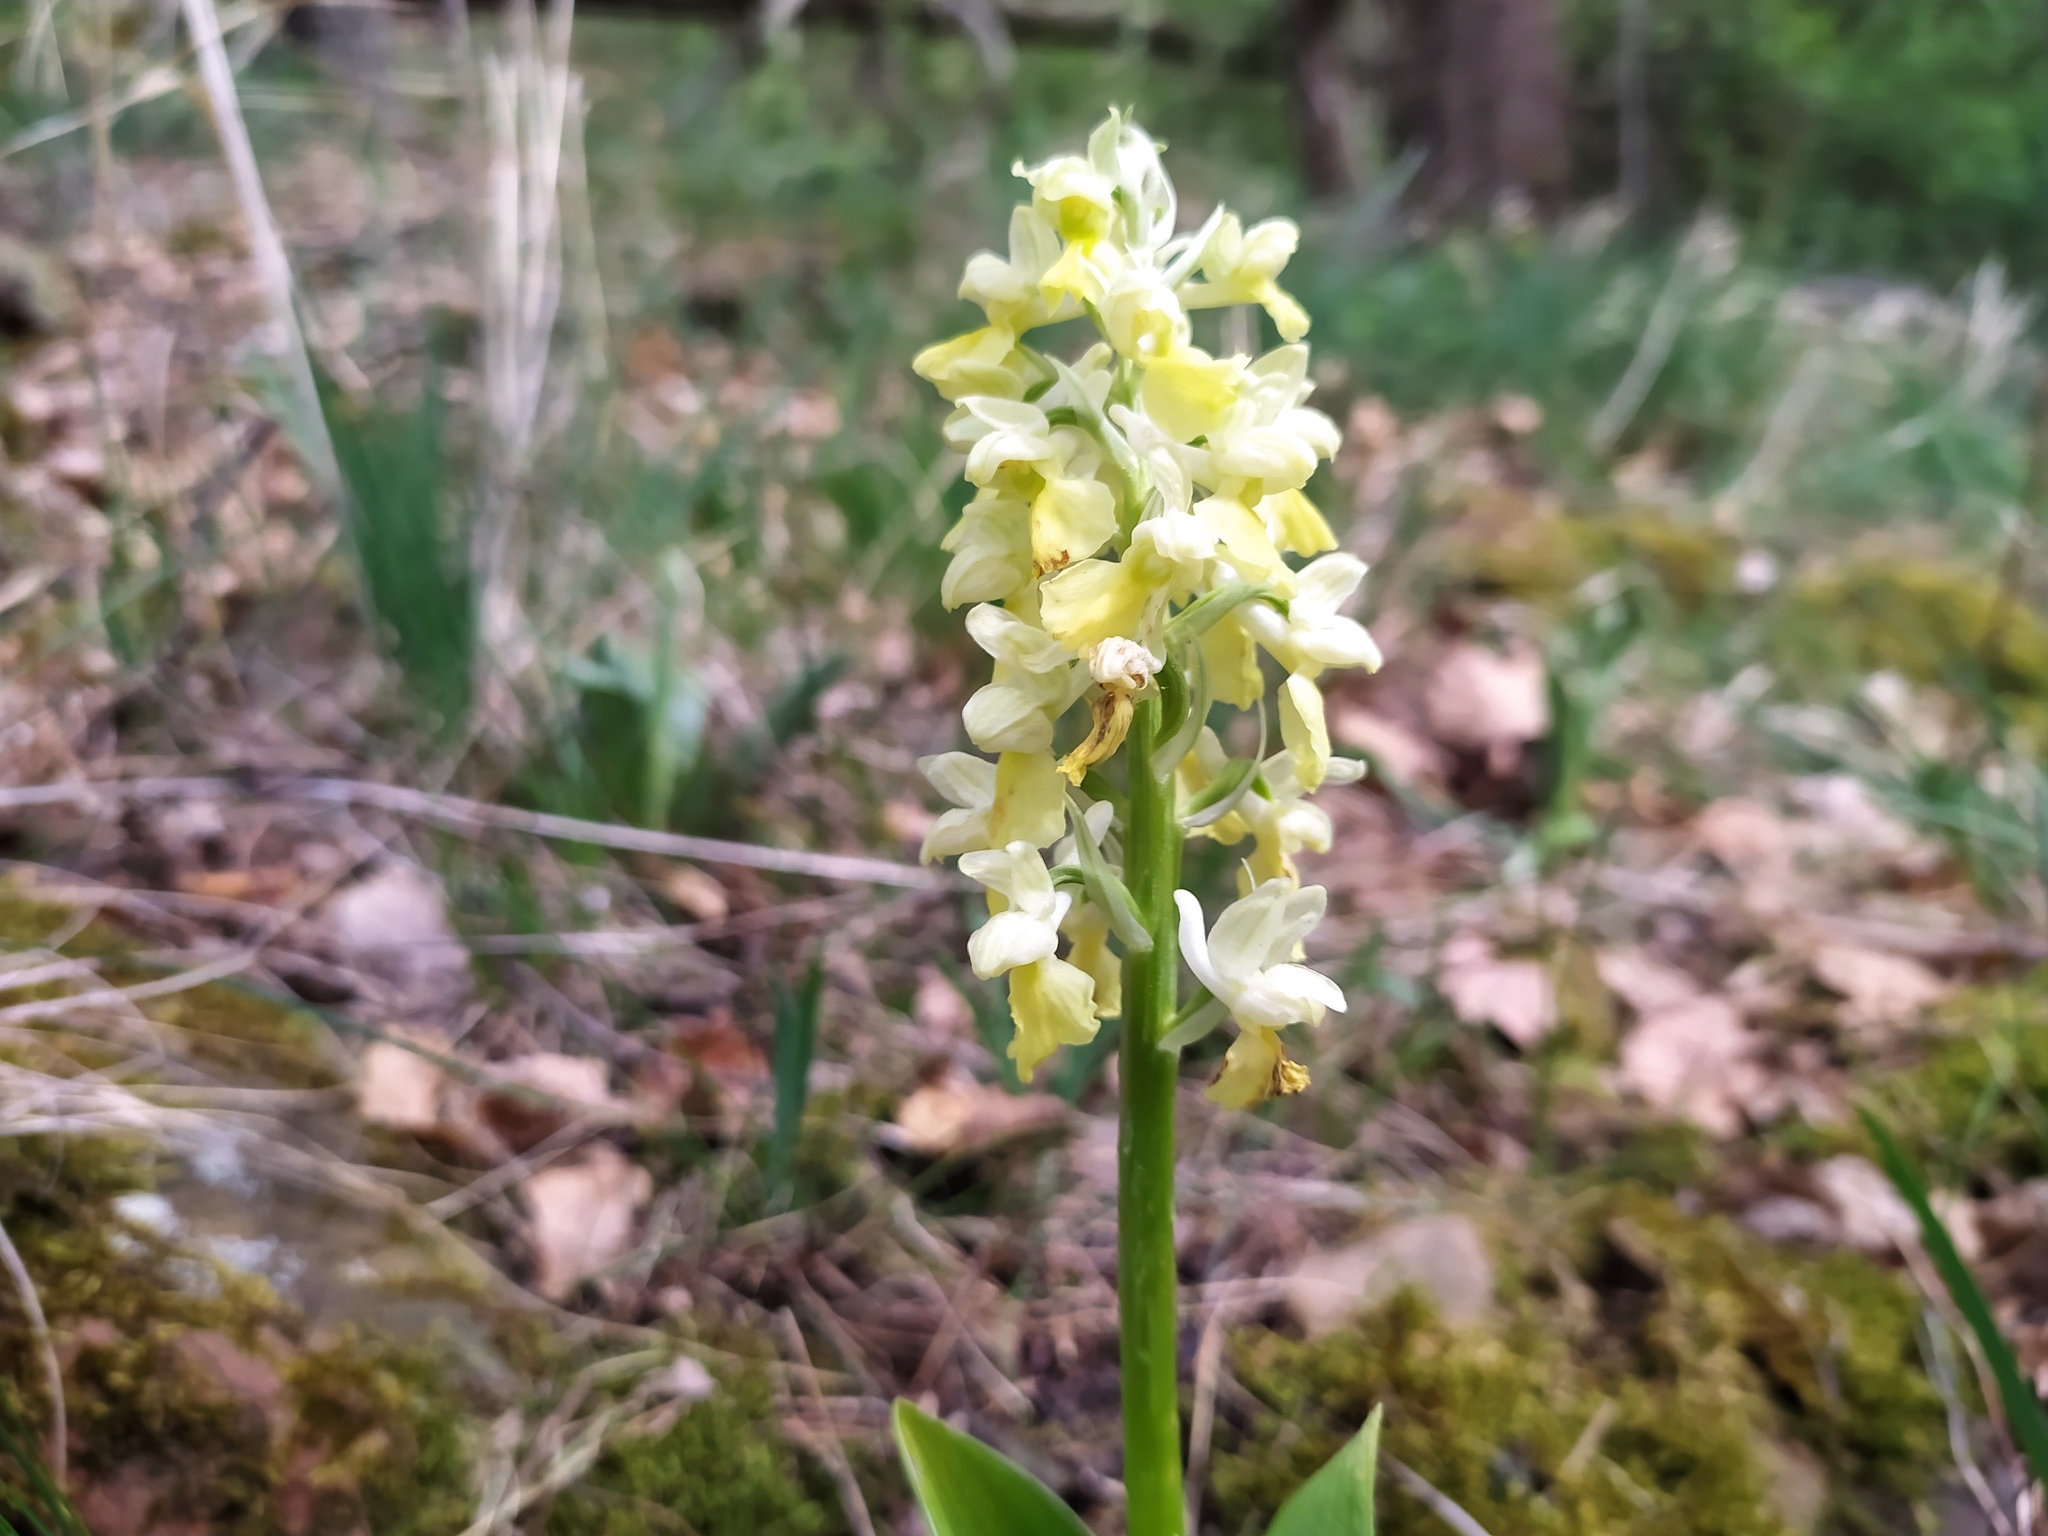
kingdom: Plantae
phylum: Tracheophyta
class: Liliopsida
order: Asparagales
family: Orchidaceae
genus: Orchis
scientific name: Orchis pallens
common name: Pale-flowered orchid
